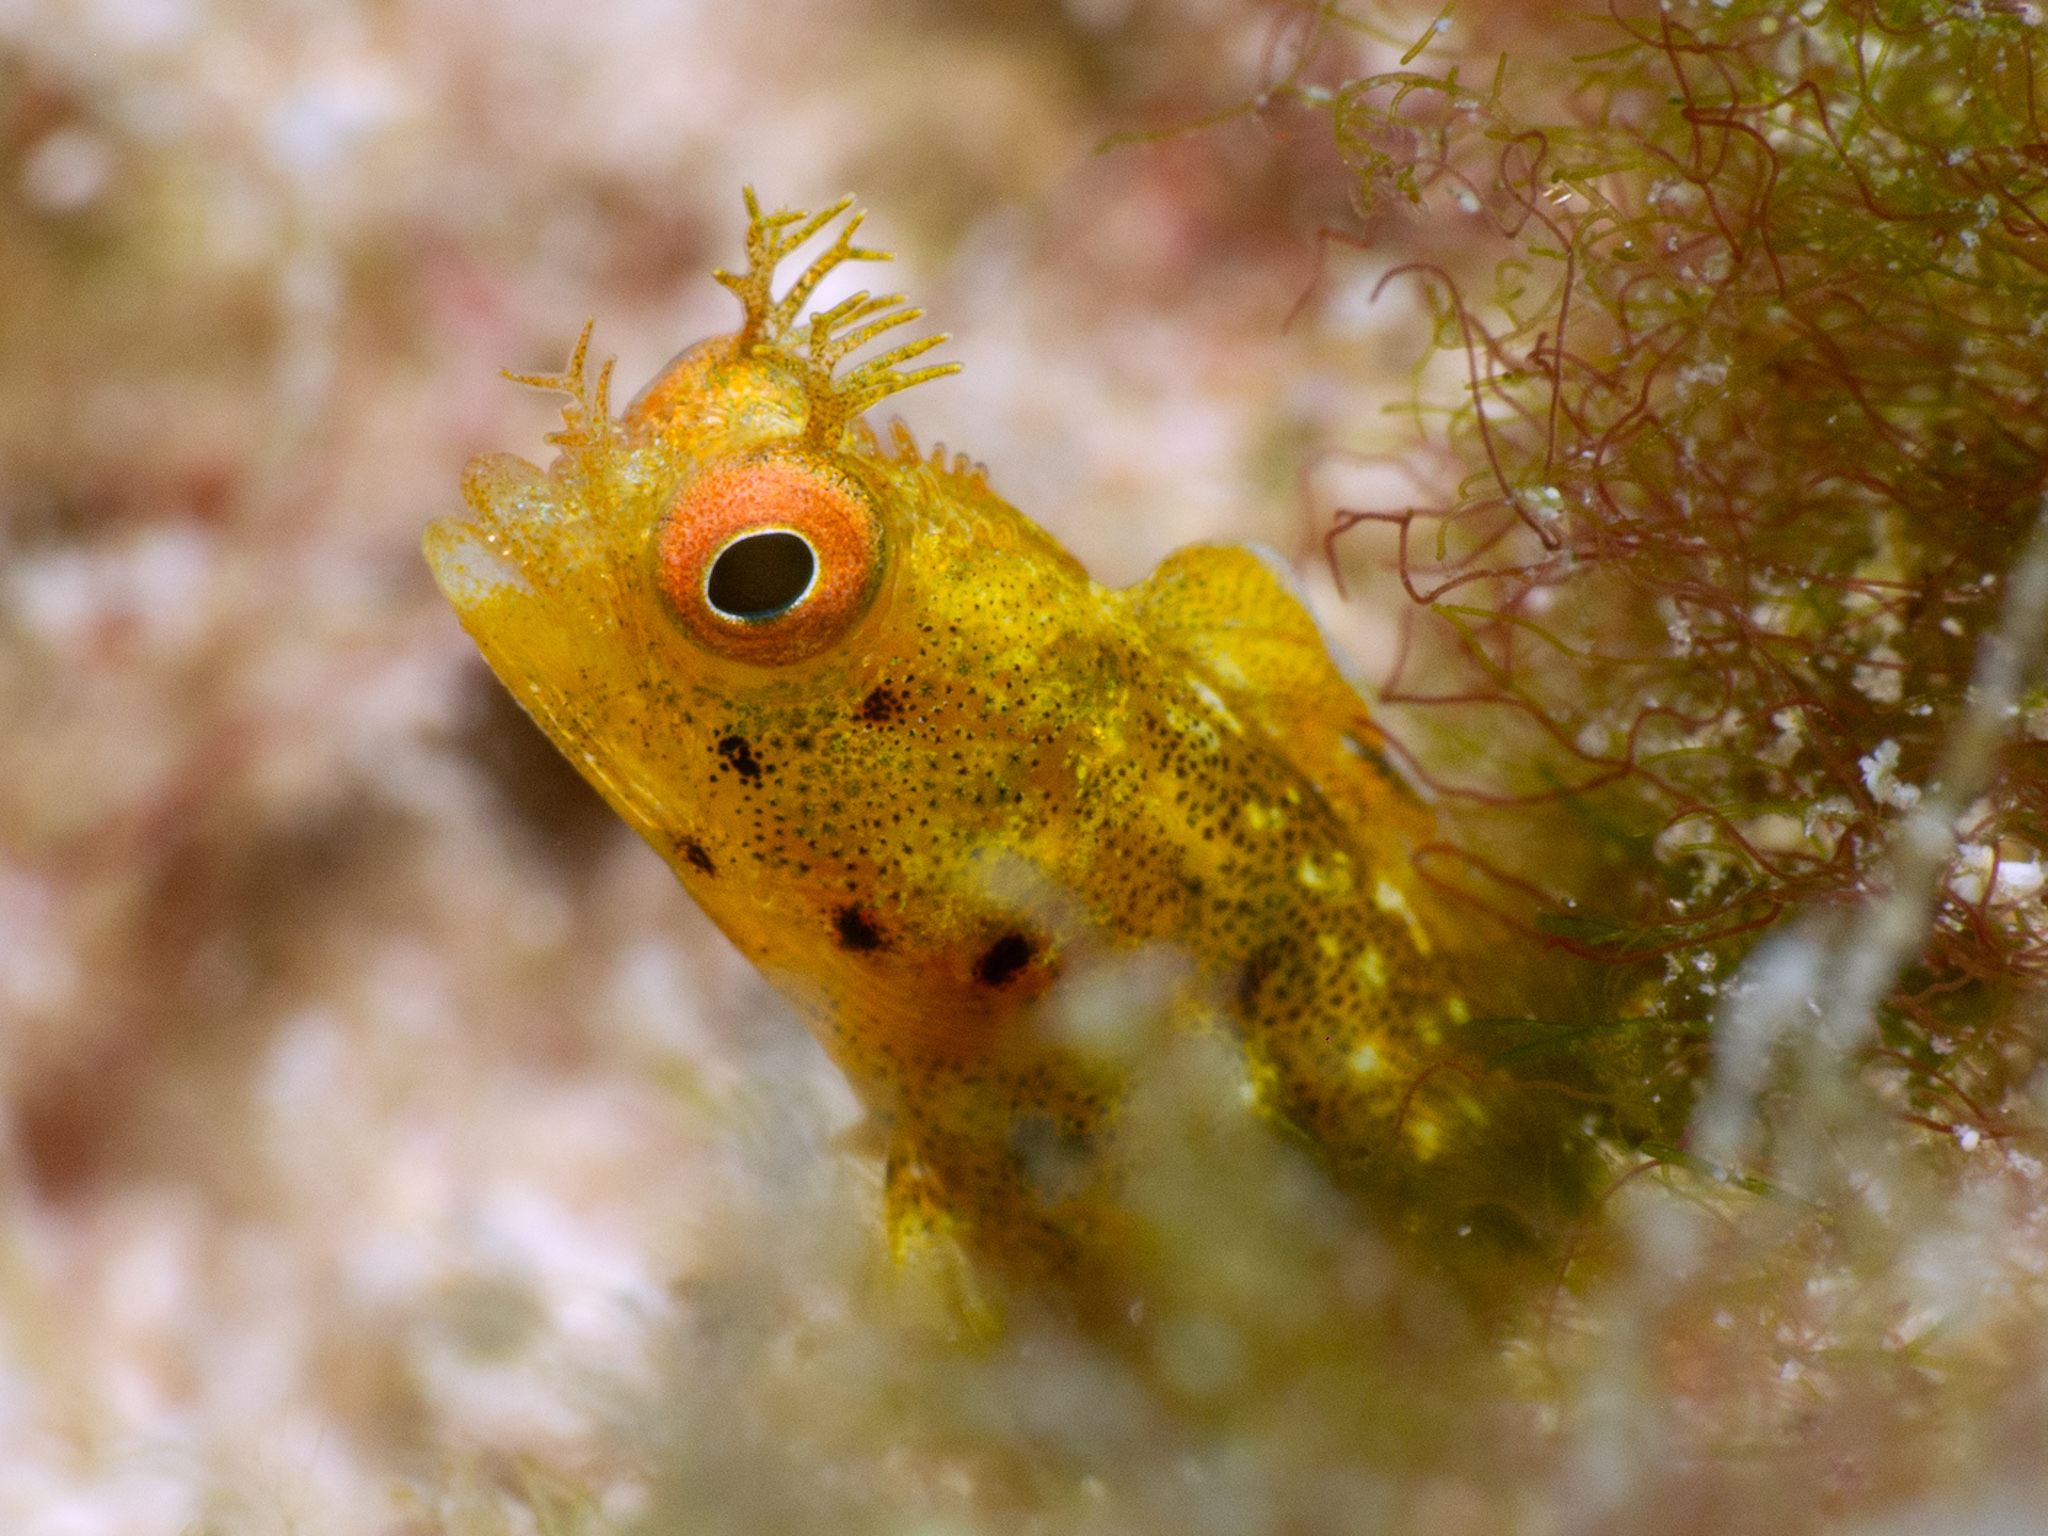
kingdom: Animalia
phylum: Chordata
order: Perciformes
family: Chaenopsidae
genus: Acanthemblemaria
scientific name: Acanthemblemaria aspera
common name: Roughhead blenny
